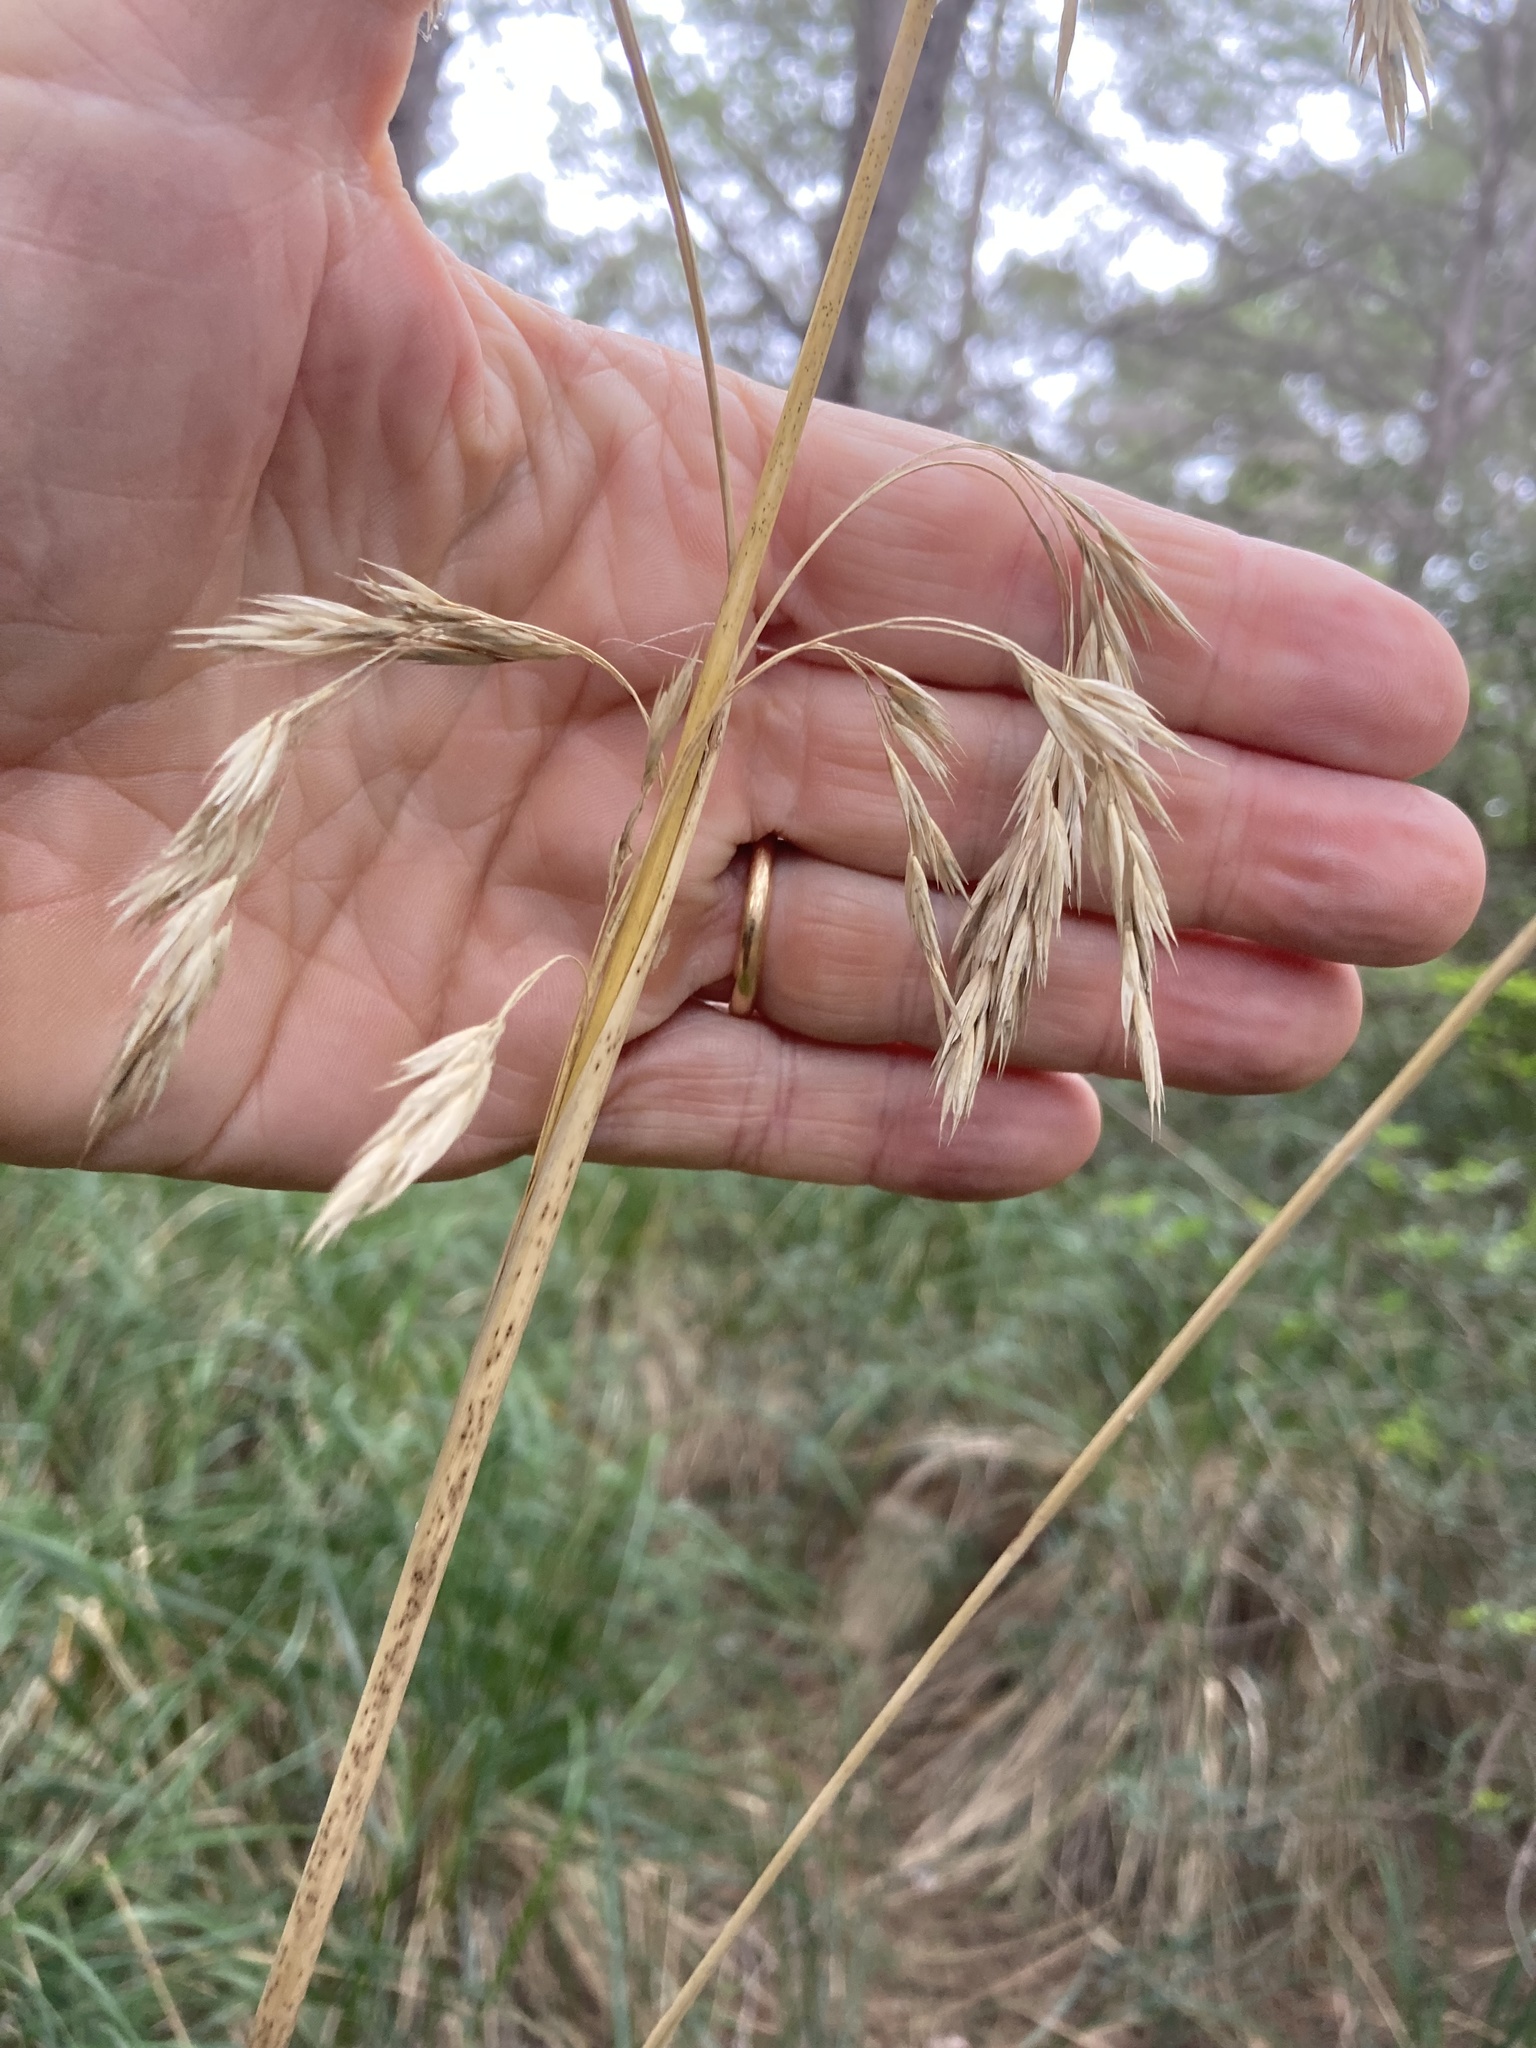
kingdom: Plantae
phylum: Tracheophyta
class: Liliopsida
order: Poales
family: Poaceae
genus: Ampelodesmos
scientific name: Ampelodesmos mauritanicus
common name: Mauritanian grass
